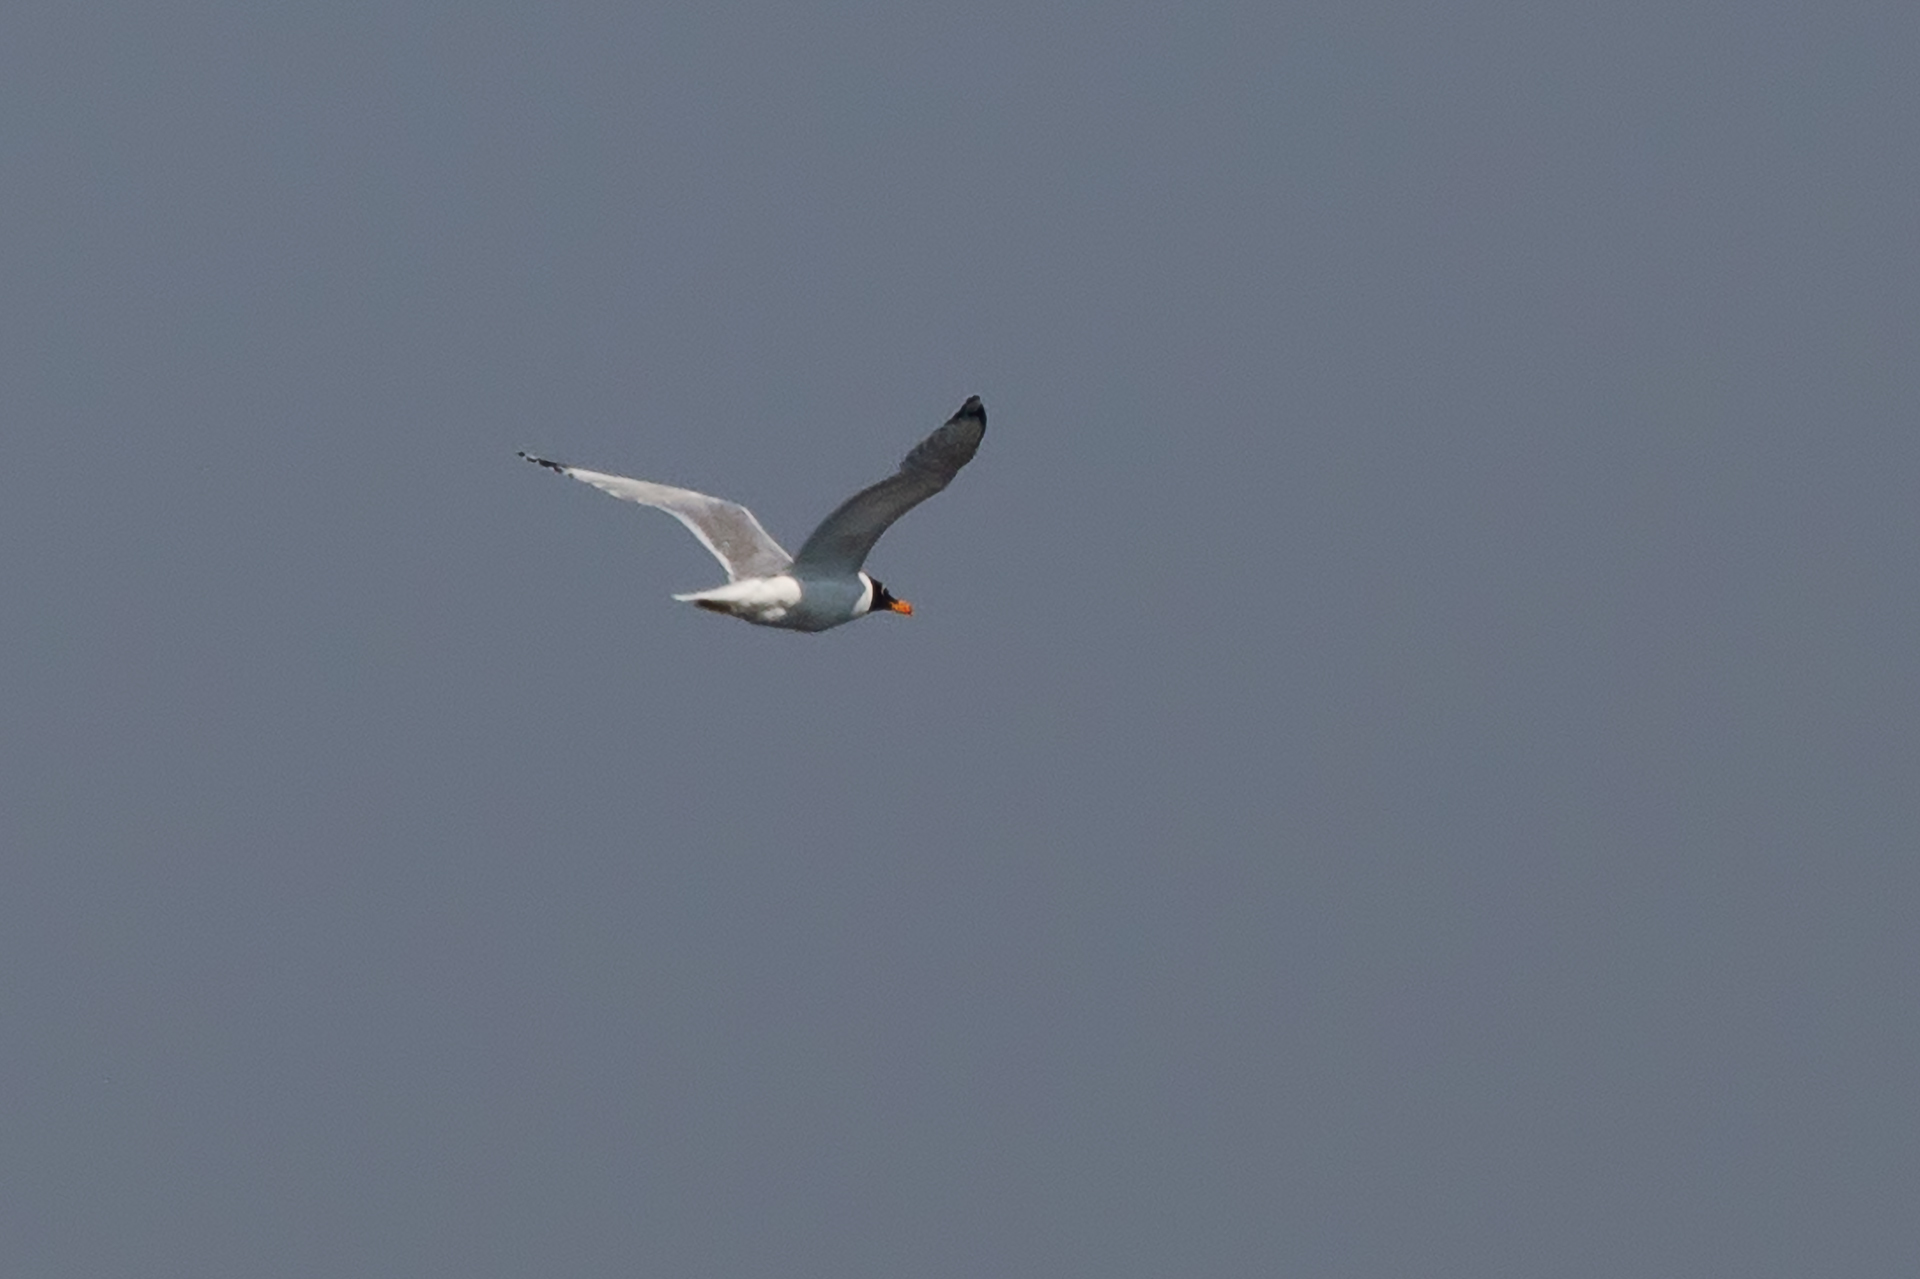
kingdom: Animalia
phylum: Chordata
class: Aves
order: Charadriiformes
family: Laridae
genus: Ichthyaetus
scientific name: Ichthyaetus ichthyaetus
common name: Pallas's gull
